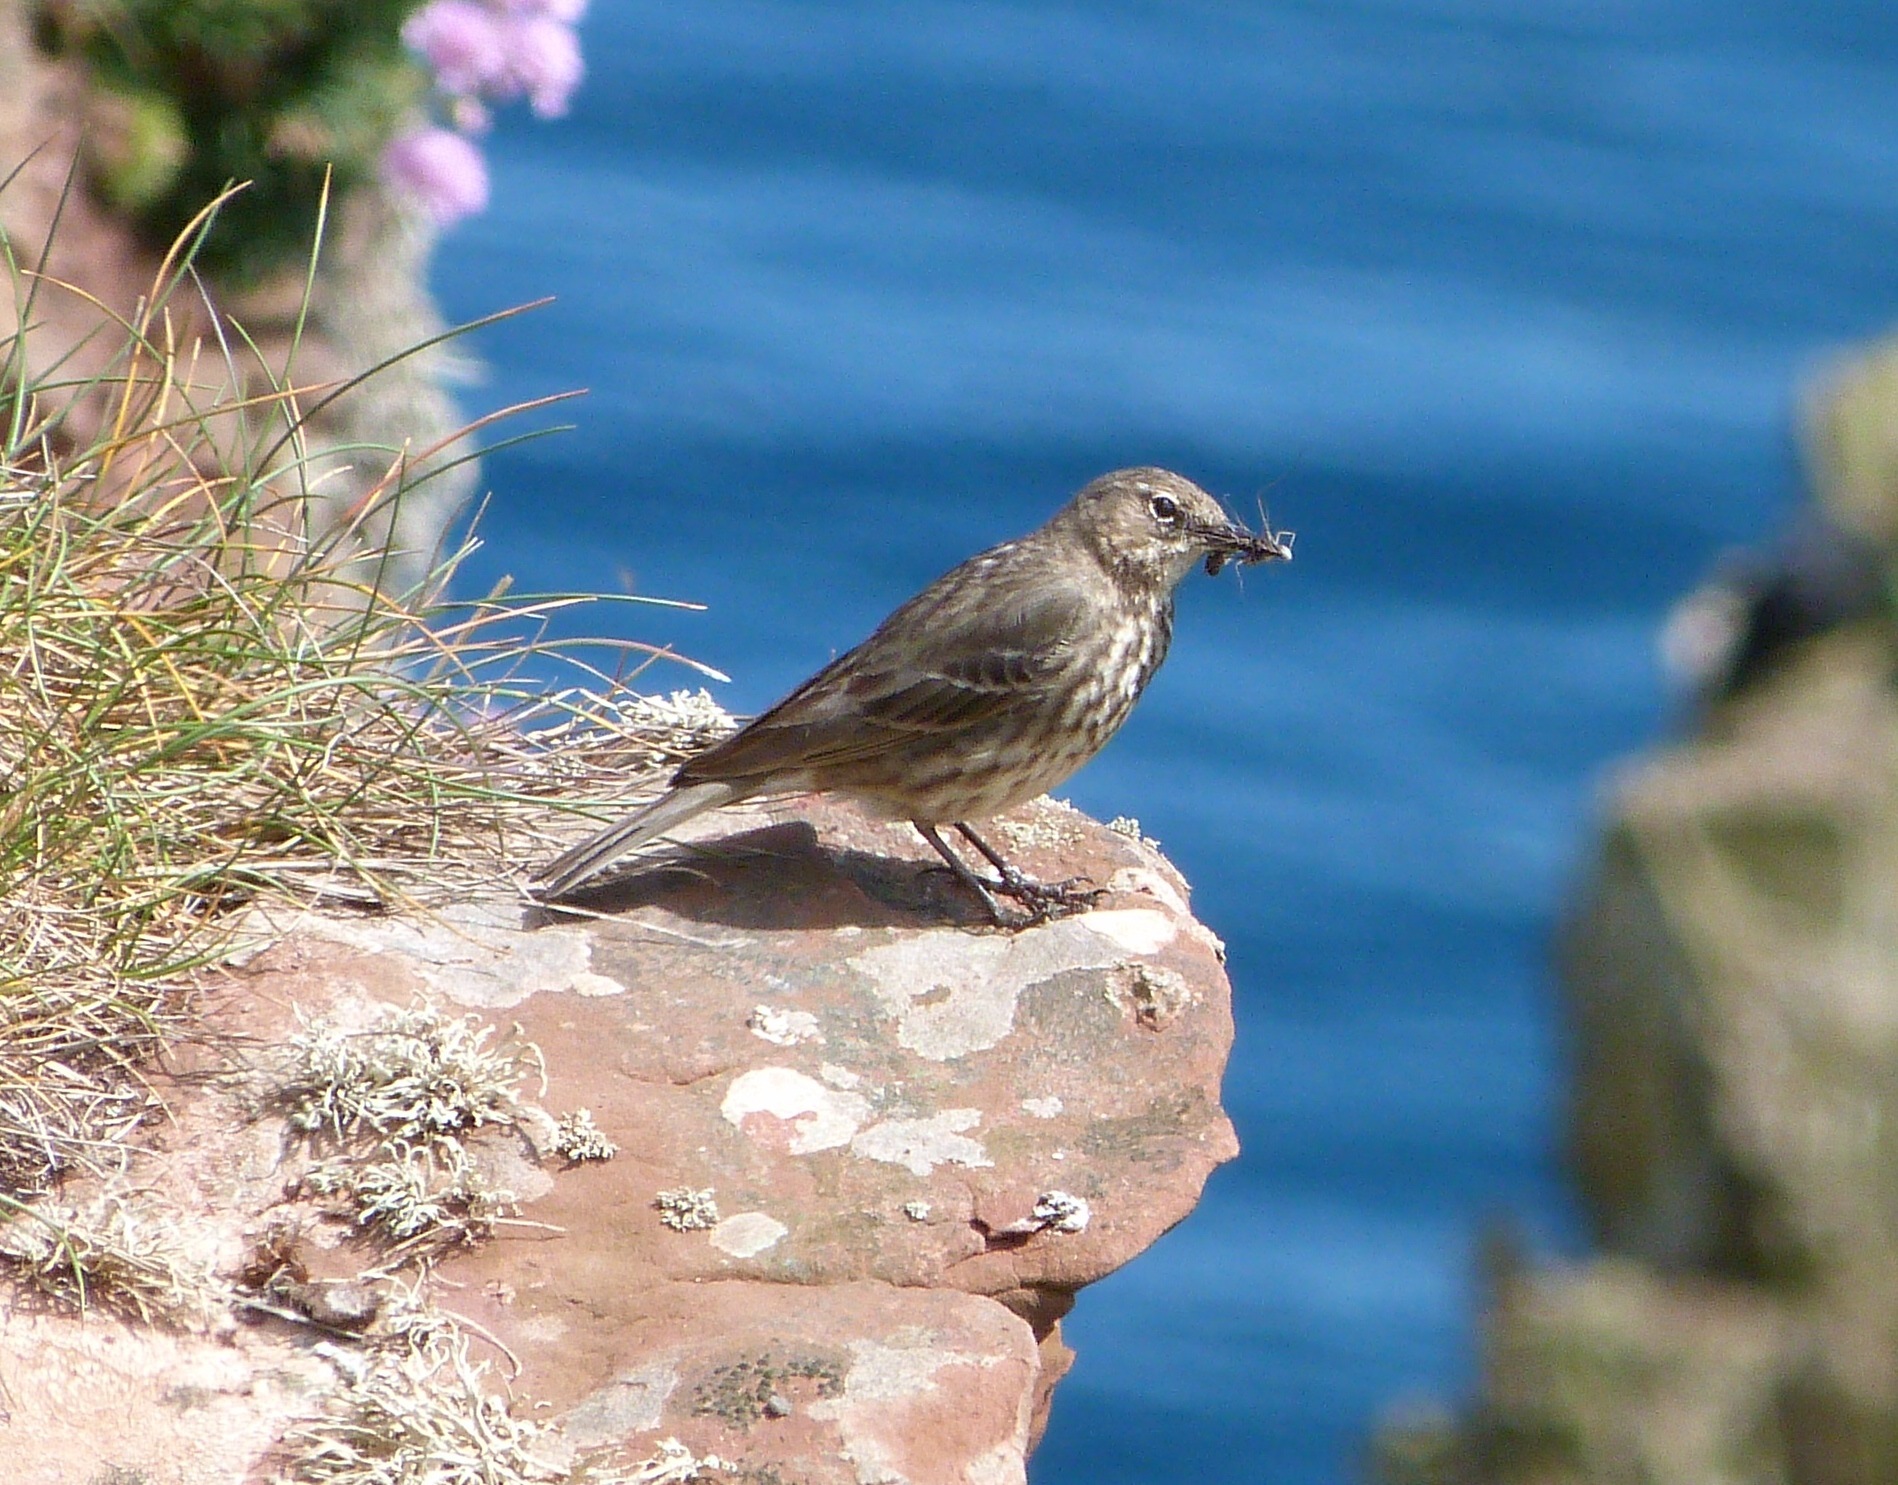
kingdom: Animalia
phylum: Chordata
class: Aves
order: Passeriformes
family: Motacillidae
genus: Anthus
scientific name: Anthus petrosus
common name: Eurasian rock pipit
